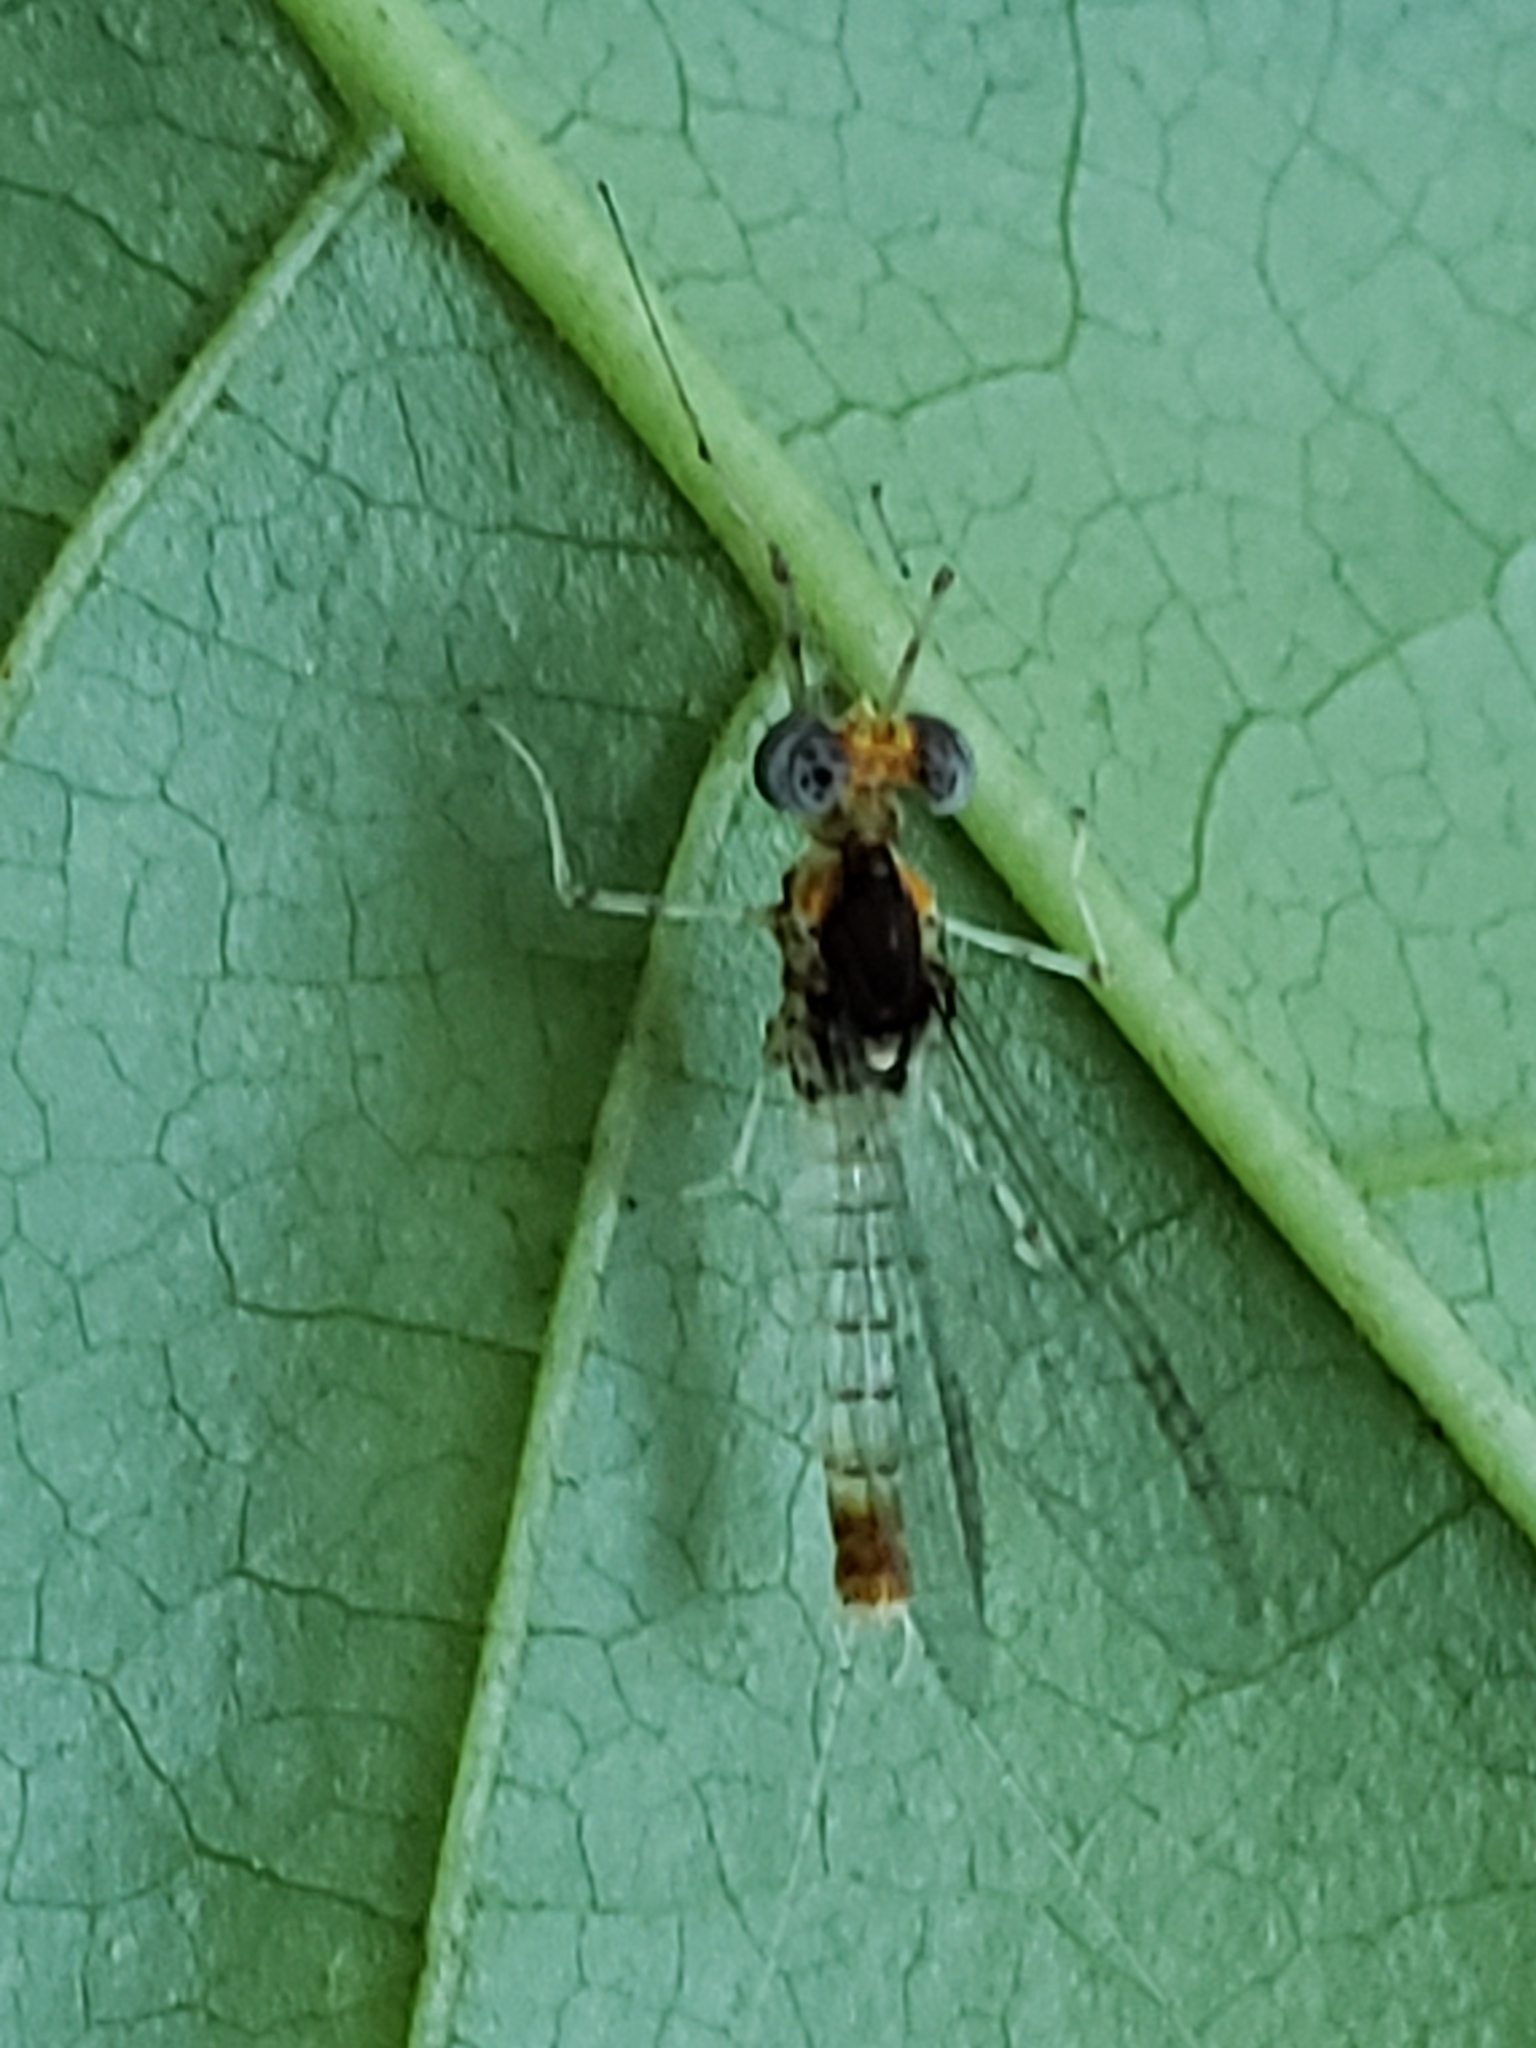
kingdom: Animalia
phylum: Arthropoda
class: Insecta
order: Ephemeroptera
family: Heptageniidae
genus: Maccaffertium
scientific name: Maccaffertium terminatum
